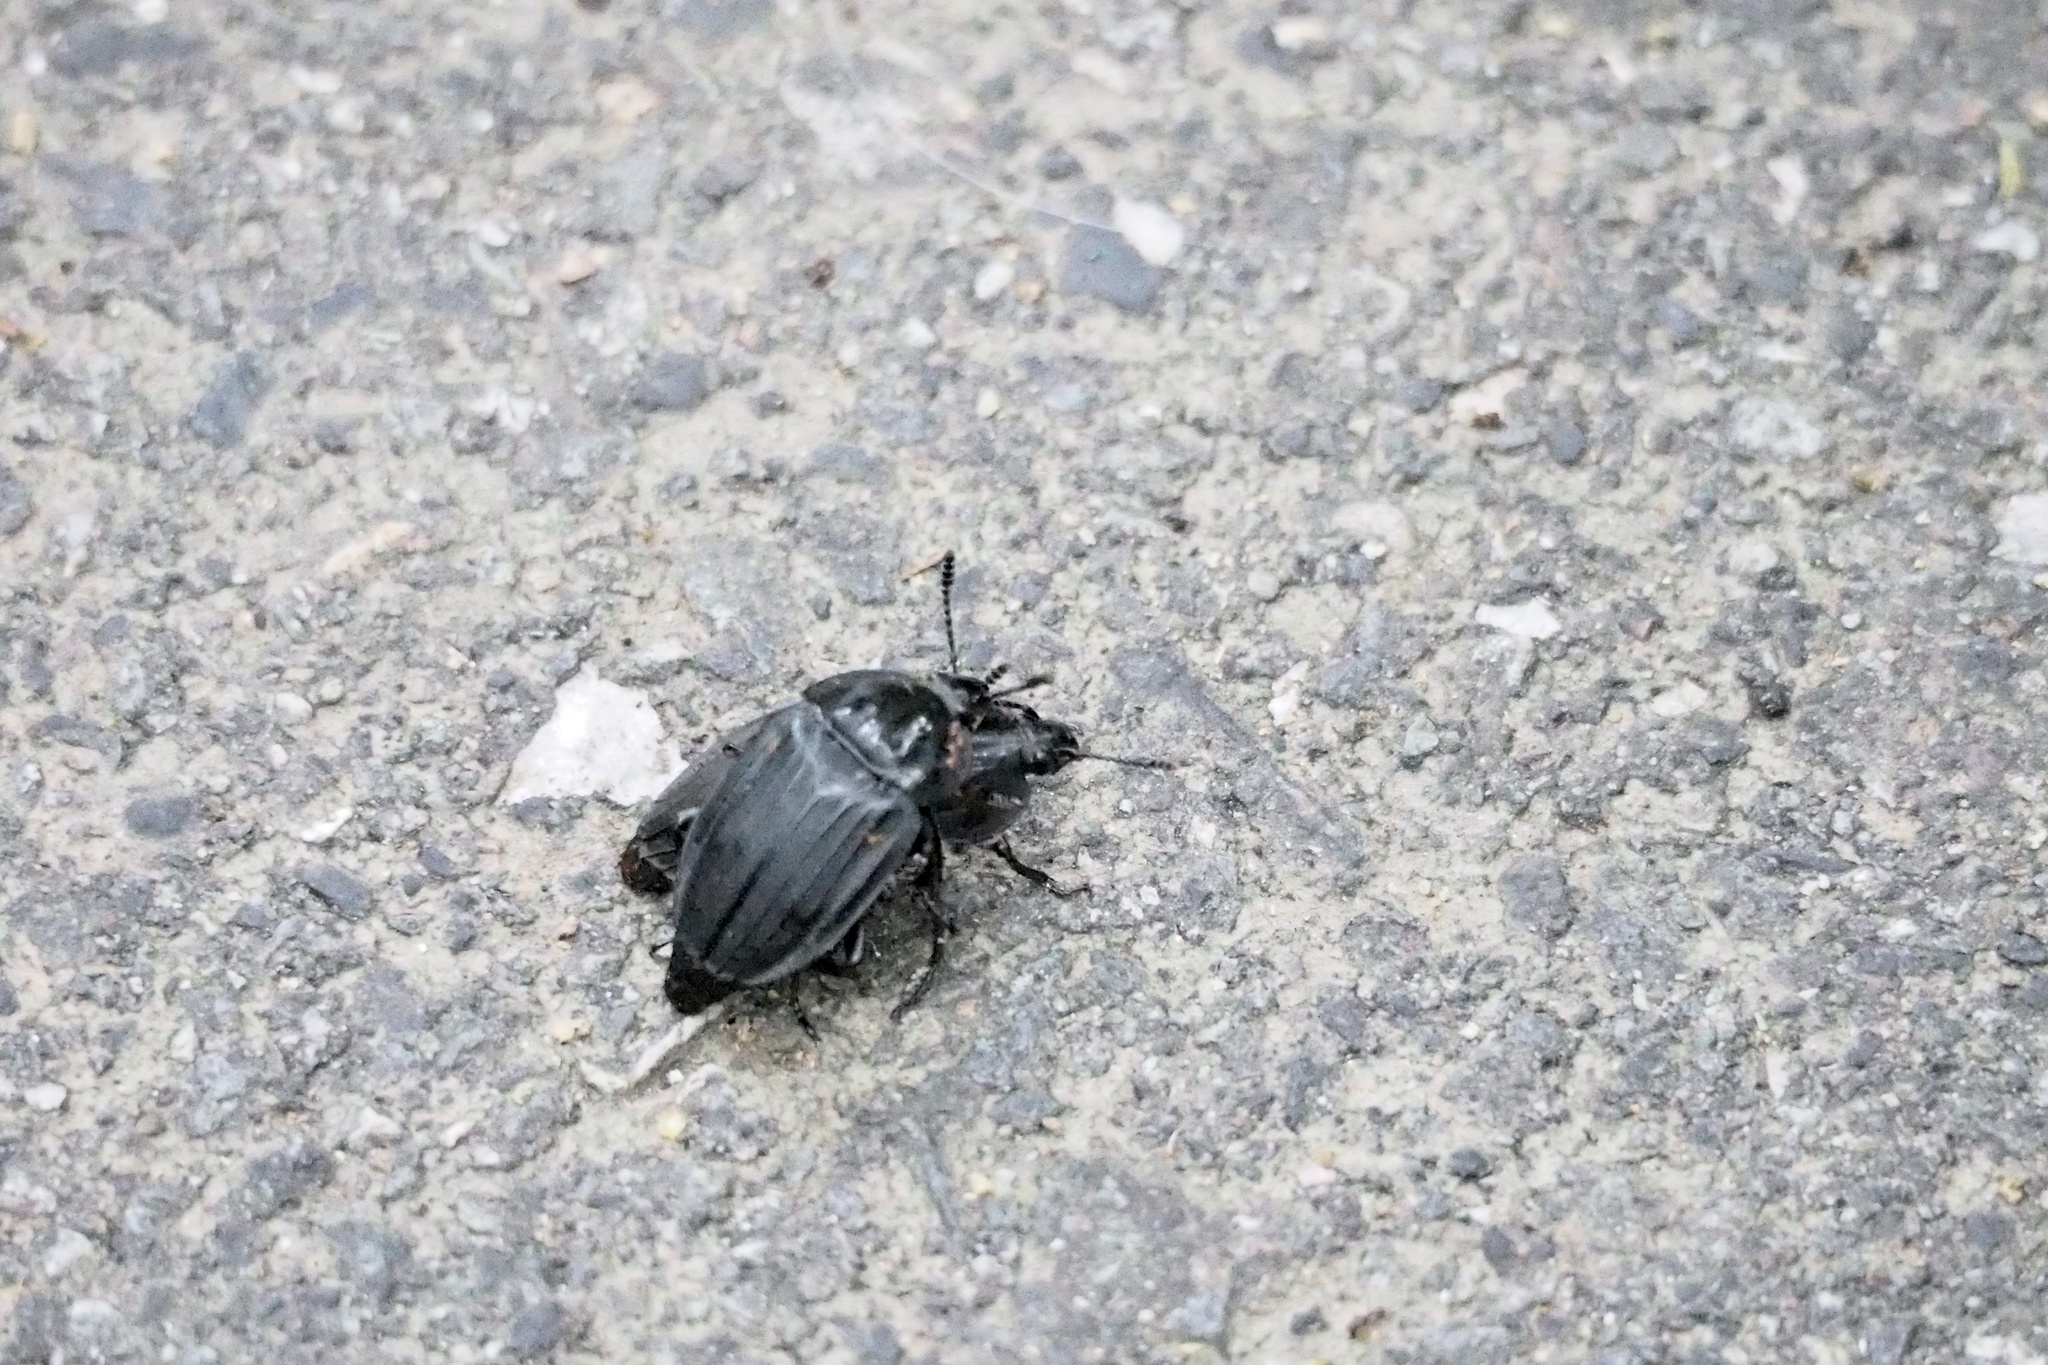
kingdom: Animalia
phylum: Arthropoda
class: Insecta
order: Coleoptera
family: Staphylinidae
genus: Necrophila
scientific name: Necrophila japonica
